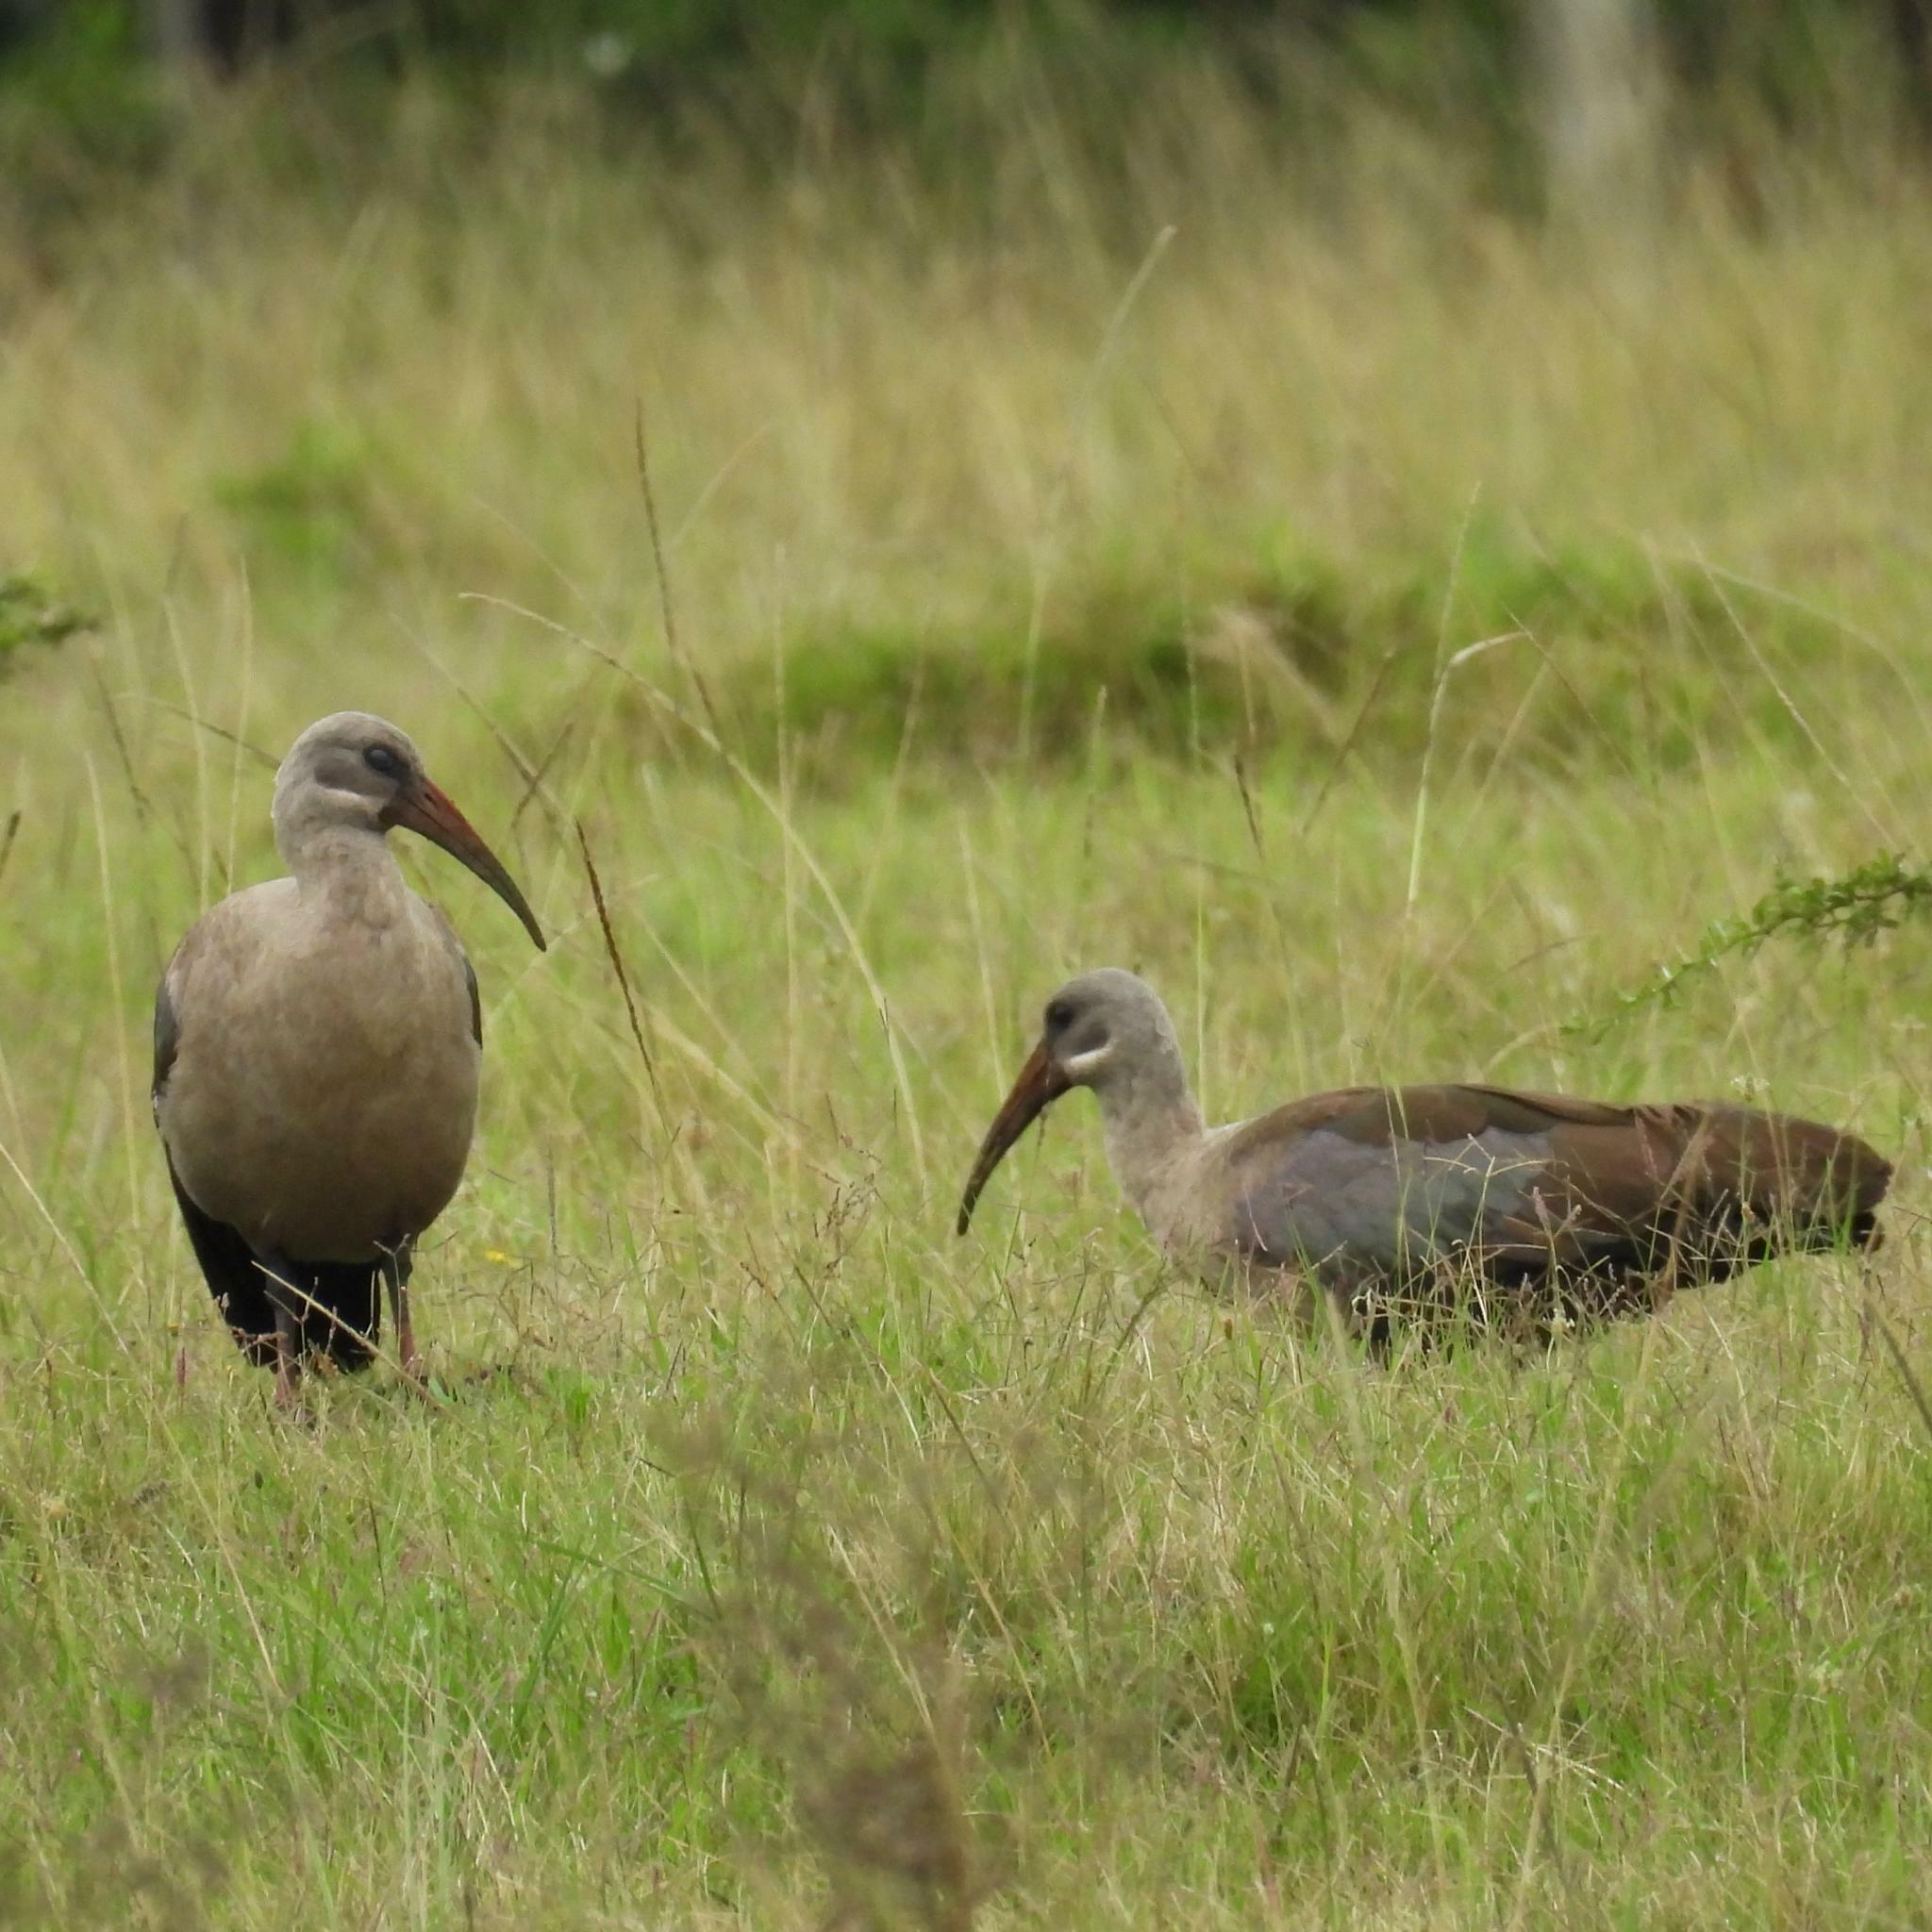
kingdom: Animalia
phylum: Chordata
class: Aves
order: Pelecaniformes
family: Threskiornithidae
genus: Bostrychia
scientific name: Bostrychia hagedash
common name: Hadada ibis
